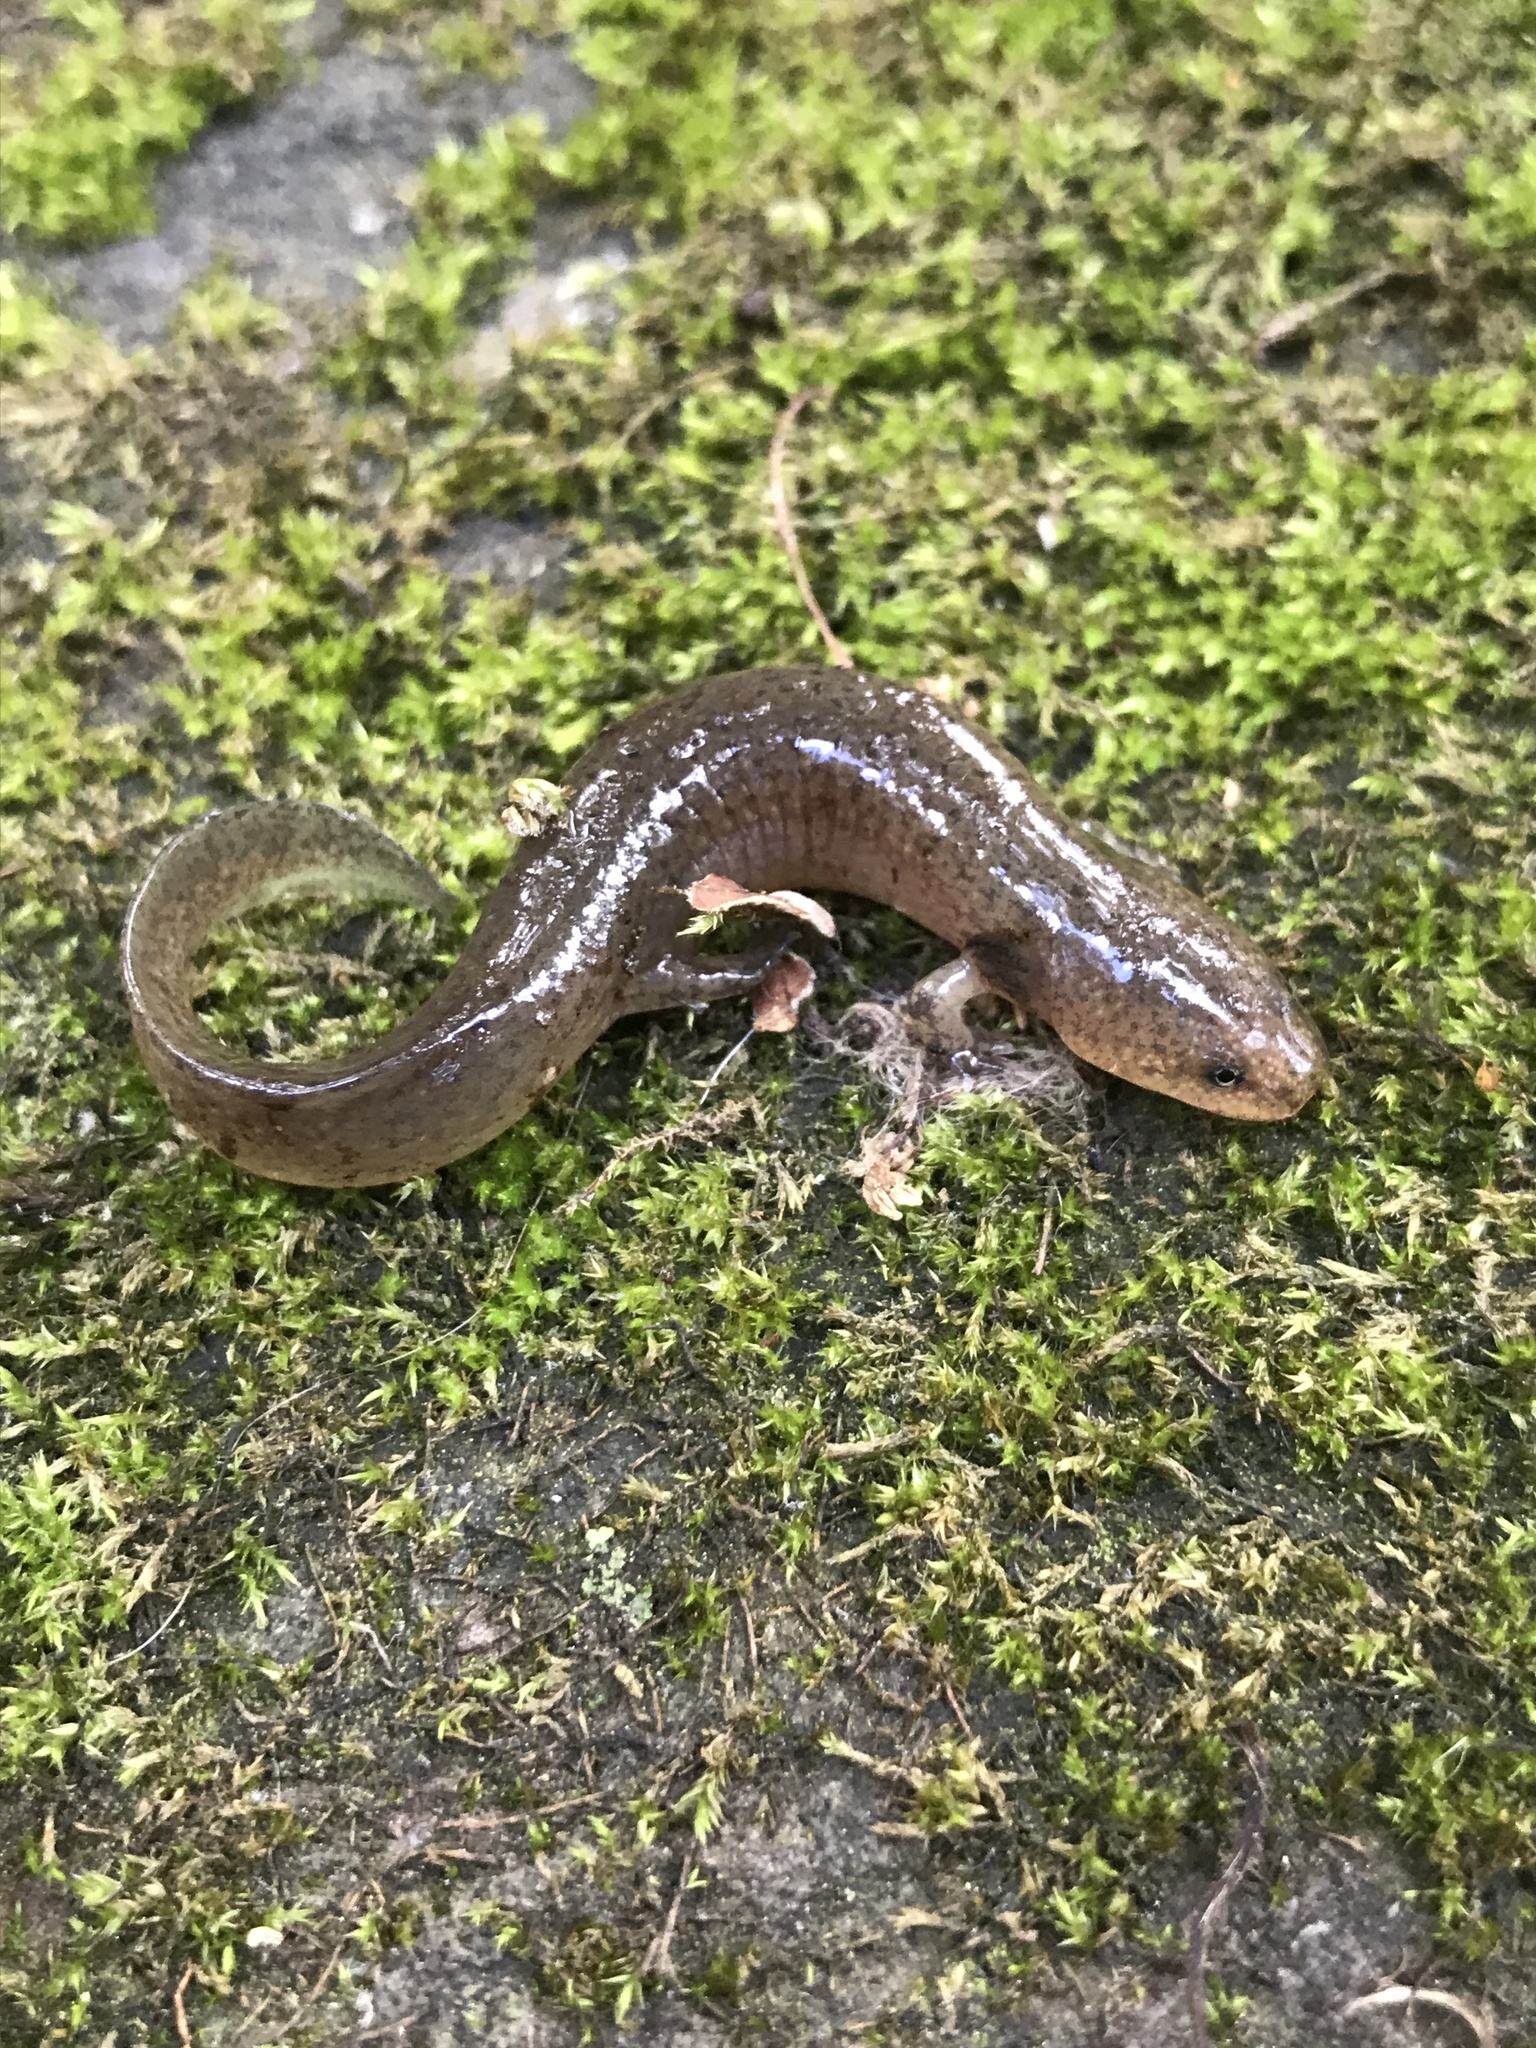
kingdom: Animalia
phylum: Chordata
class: Amphibia
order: Caudata
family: Plethodontidae
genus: Pseudotriton
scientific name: Pseudotriton ruber
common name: Red salamander
